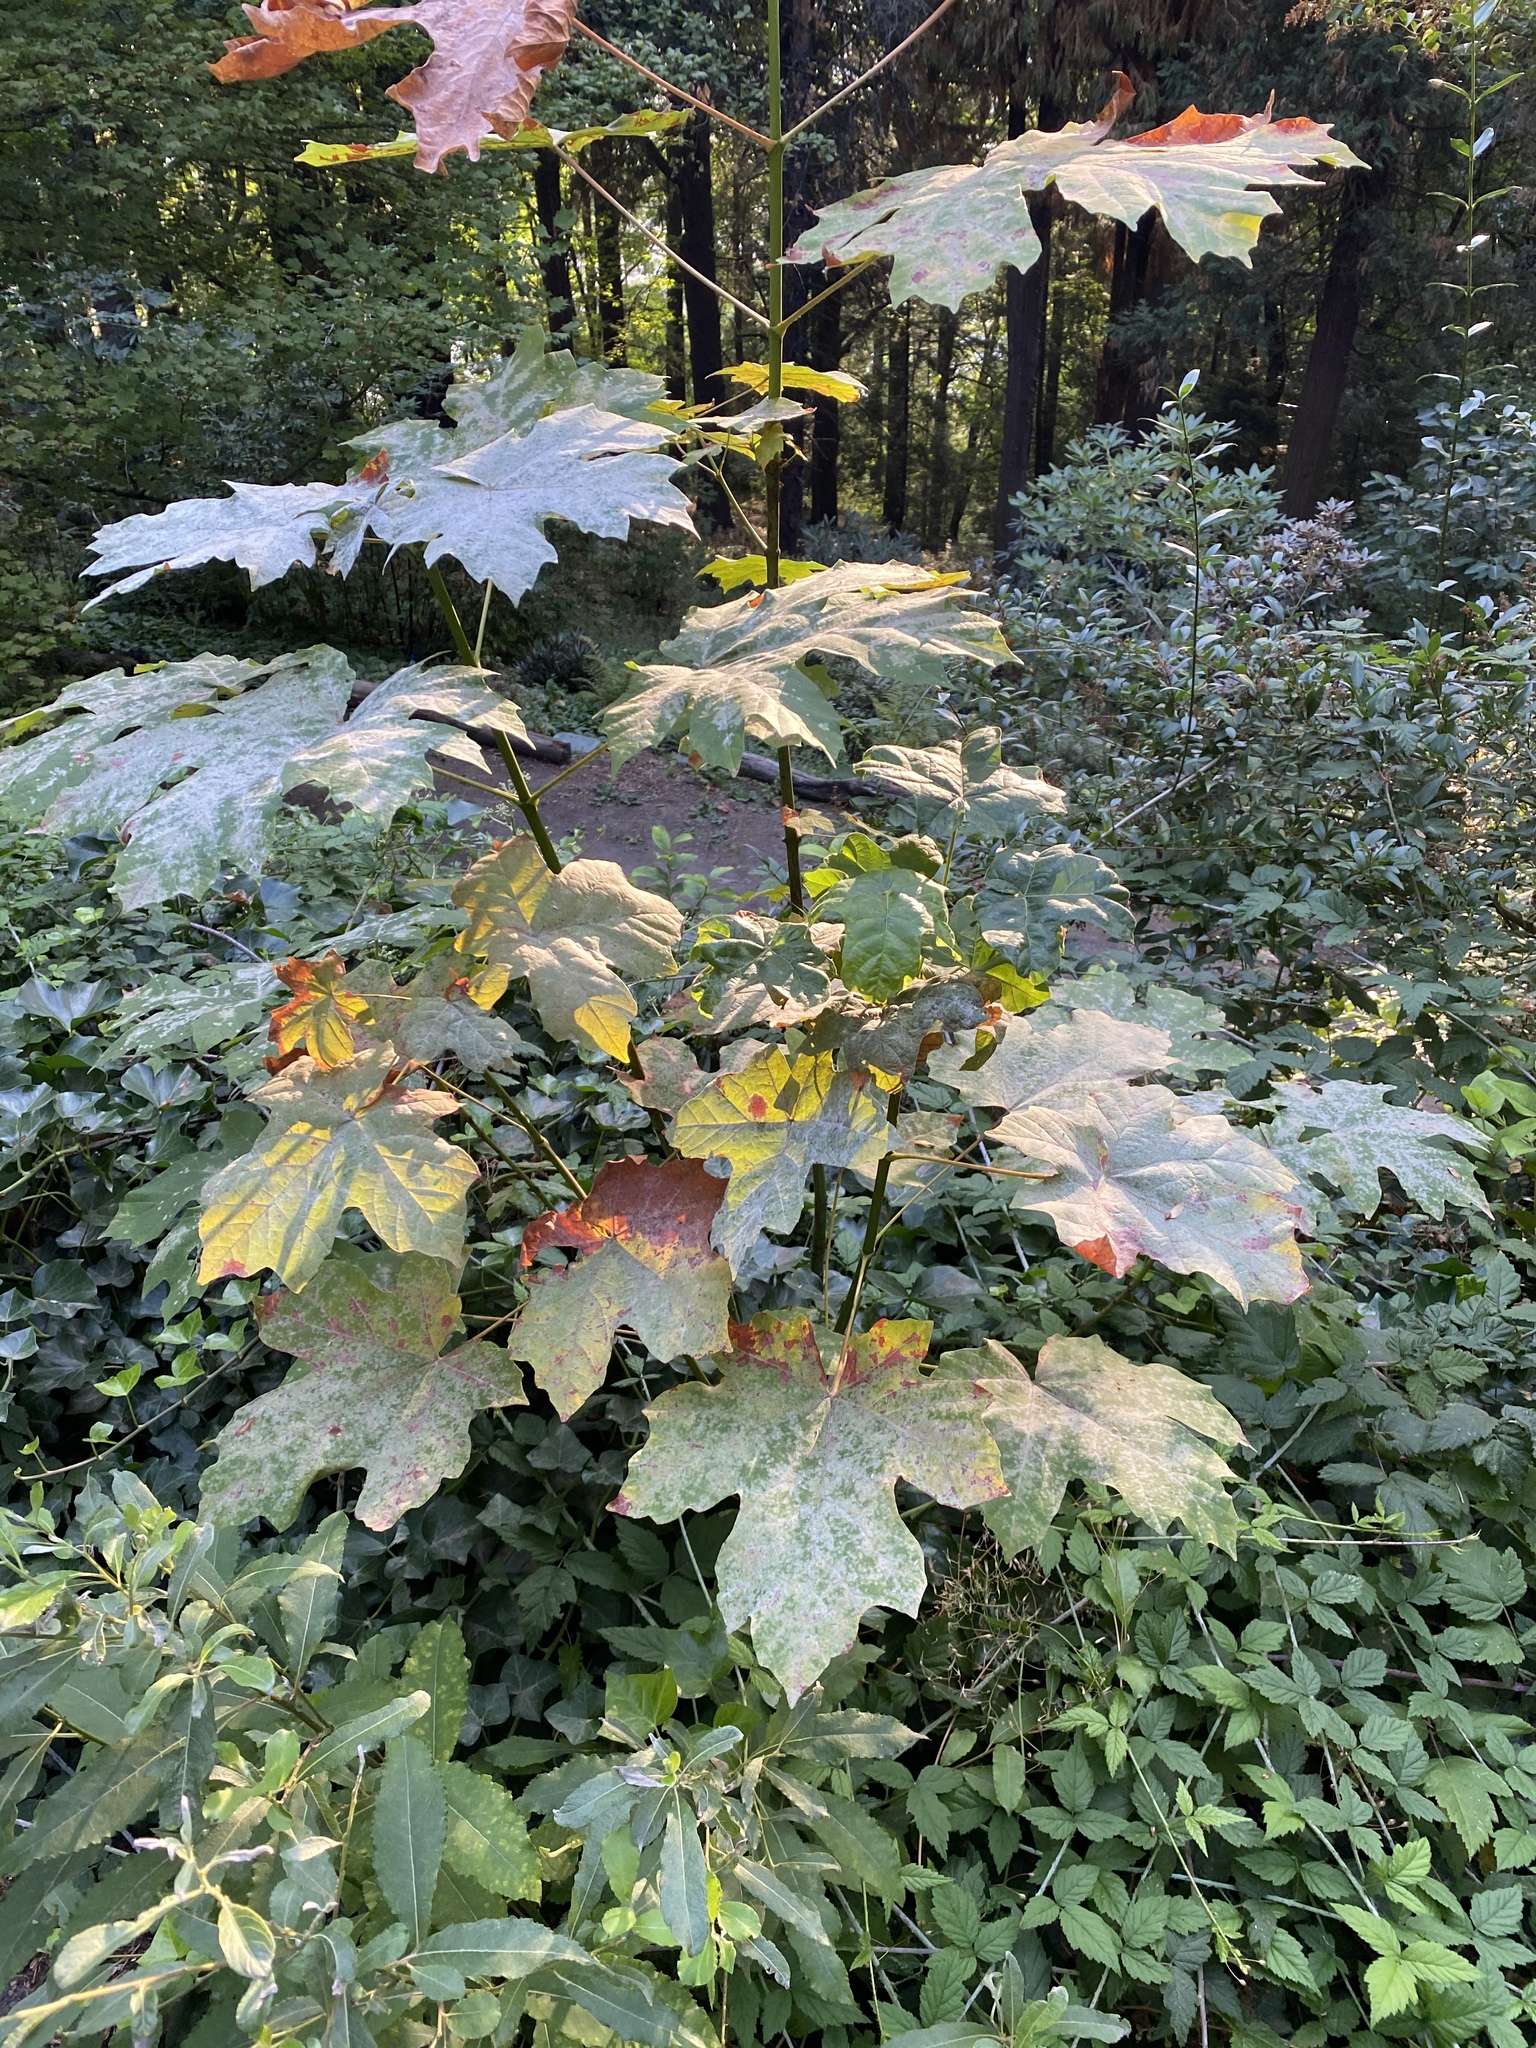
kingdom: Plantae
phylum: Tracheophyta
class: Magnoliopsida
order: Sapindales
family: Sapindaceae
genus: Acer
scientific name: Acer macrophyllum
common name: Oregon maple
